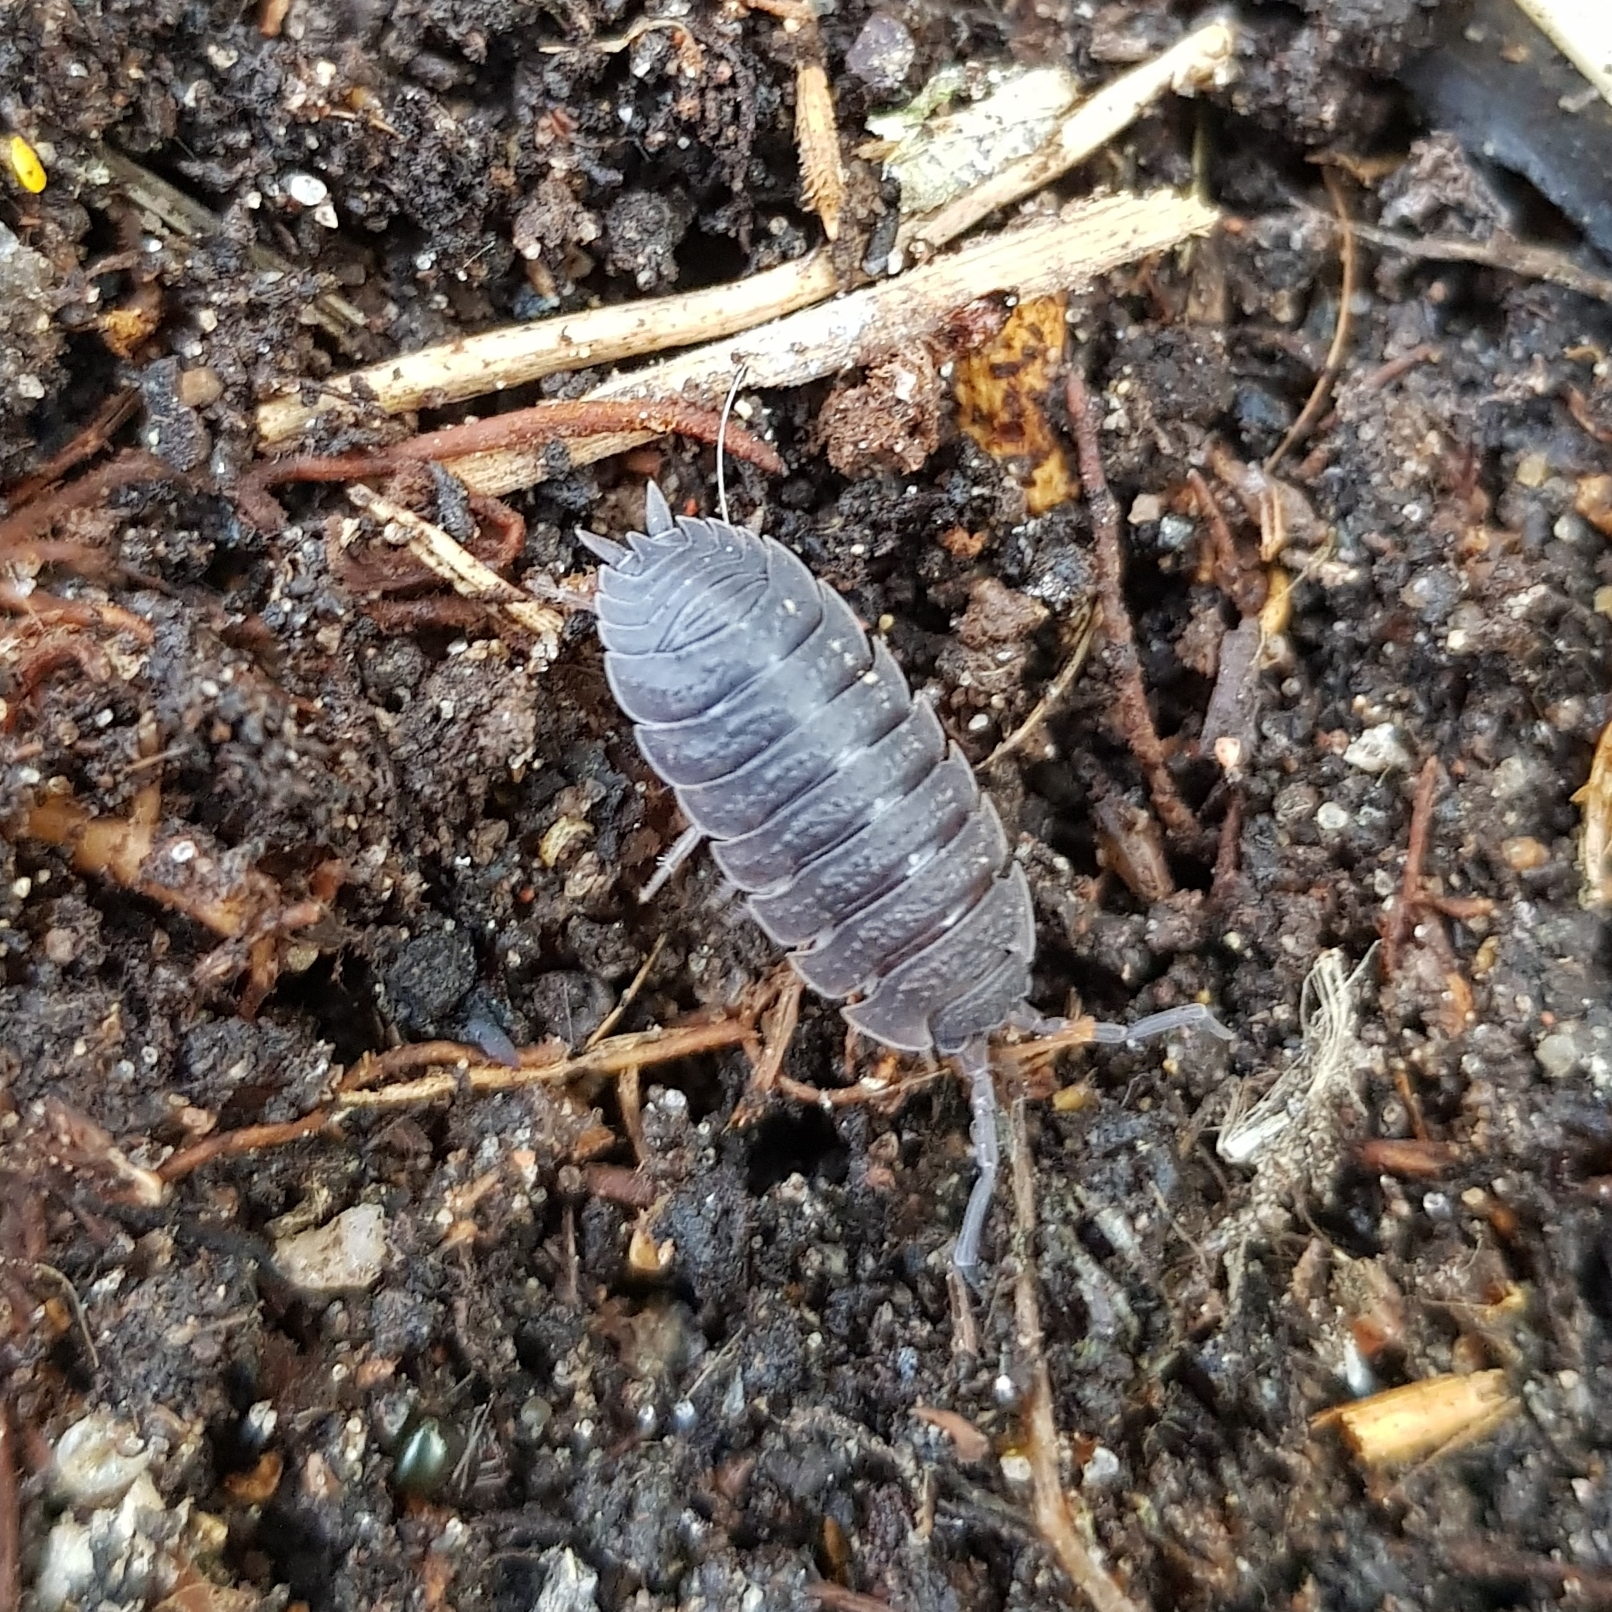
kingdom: Animalia
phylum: Arthropoda
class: Malacostraca
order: Isopoda
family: Porcellionidae
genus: Porcellio
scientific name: Porcellio scaber
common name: Common rough woodlouse
